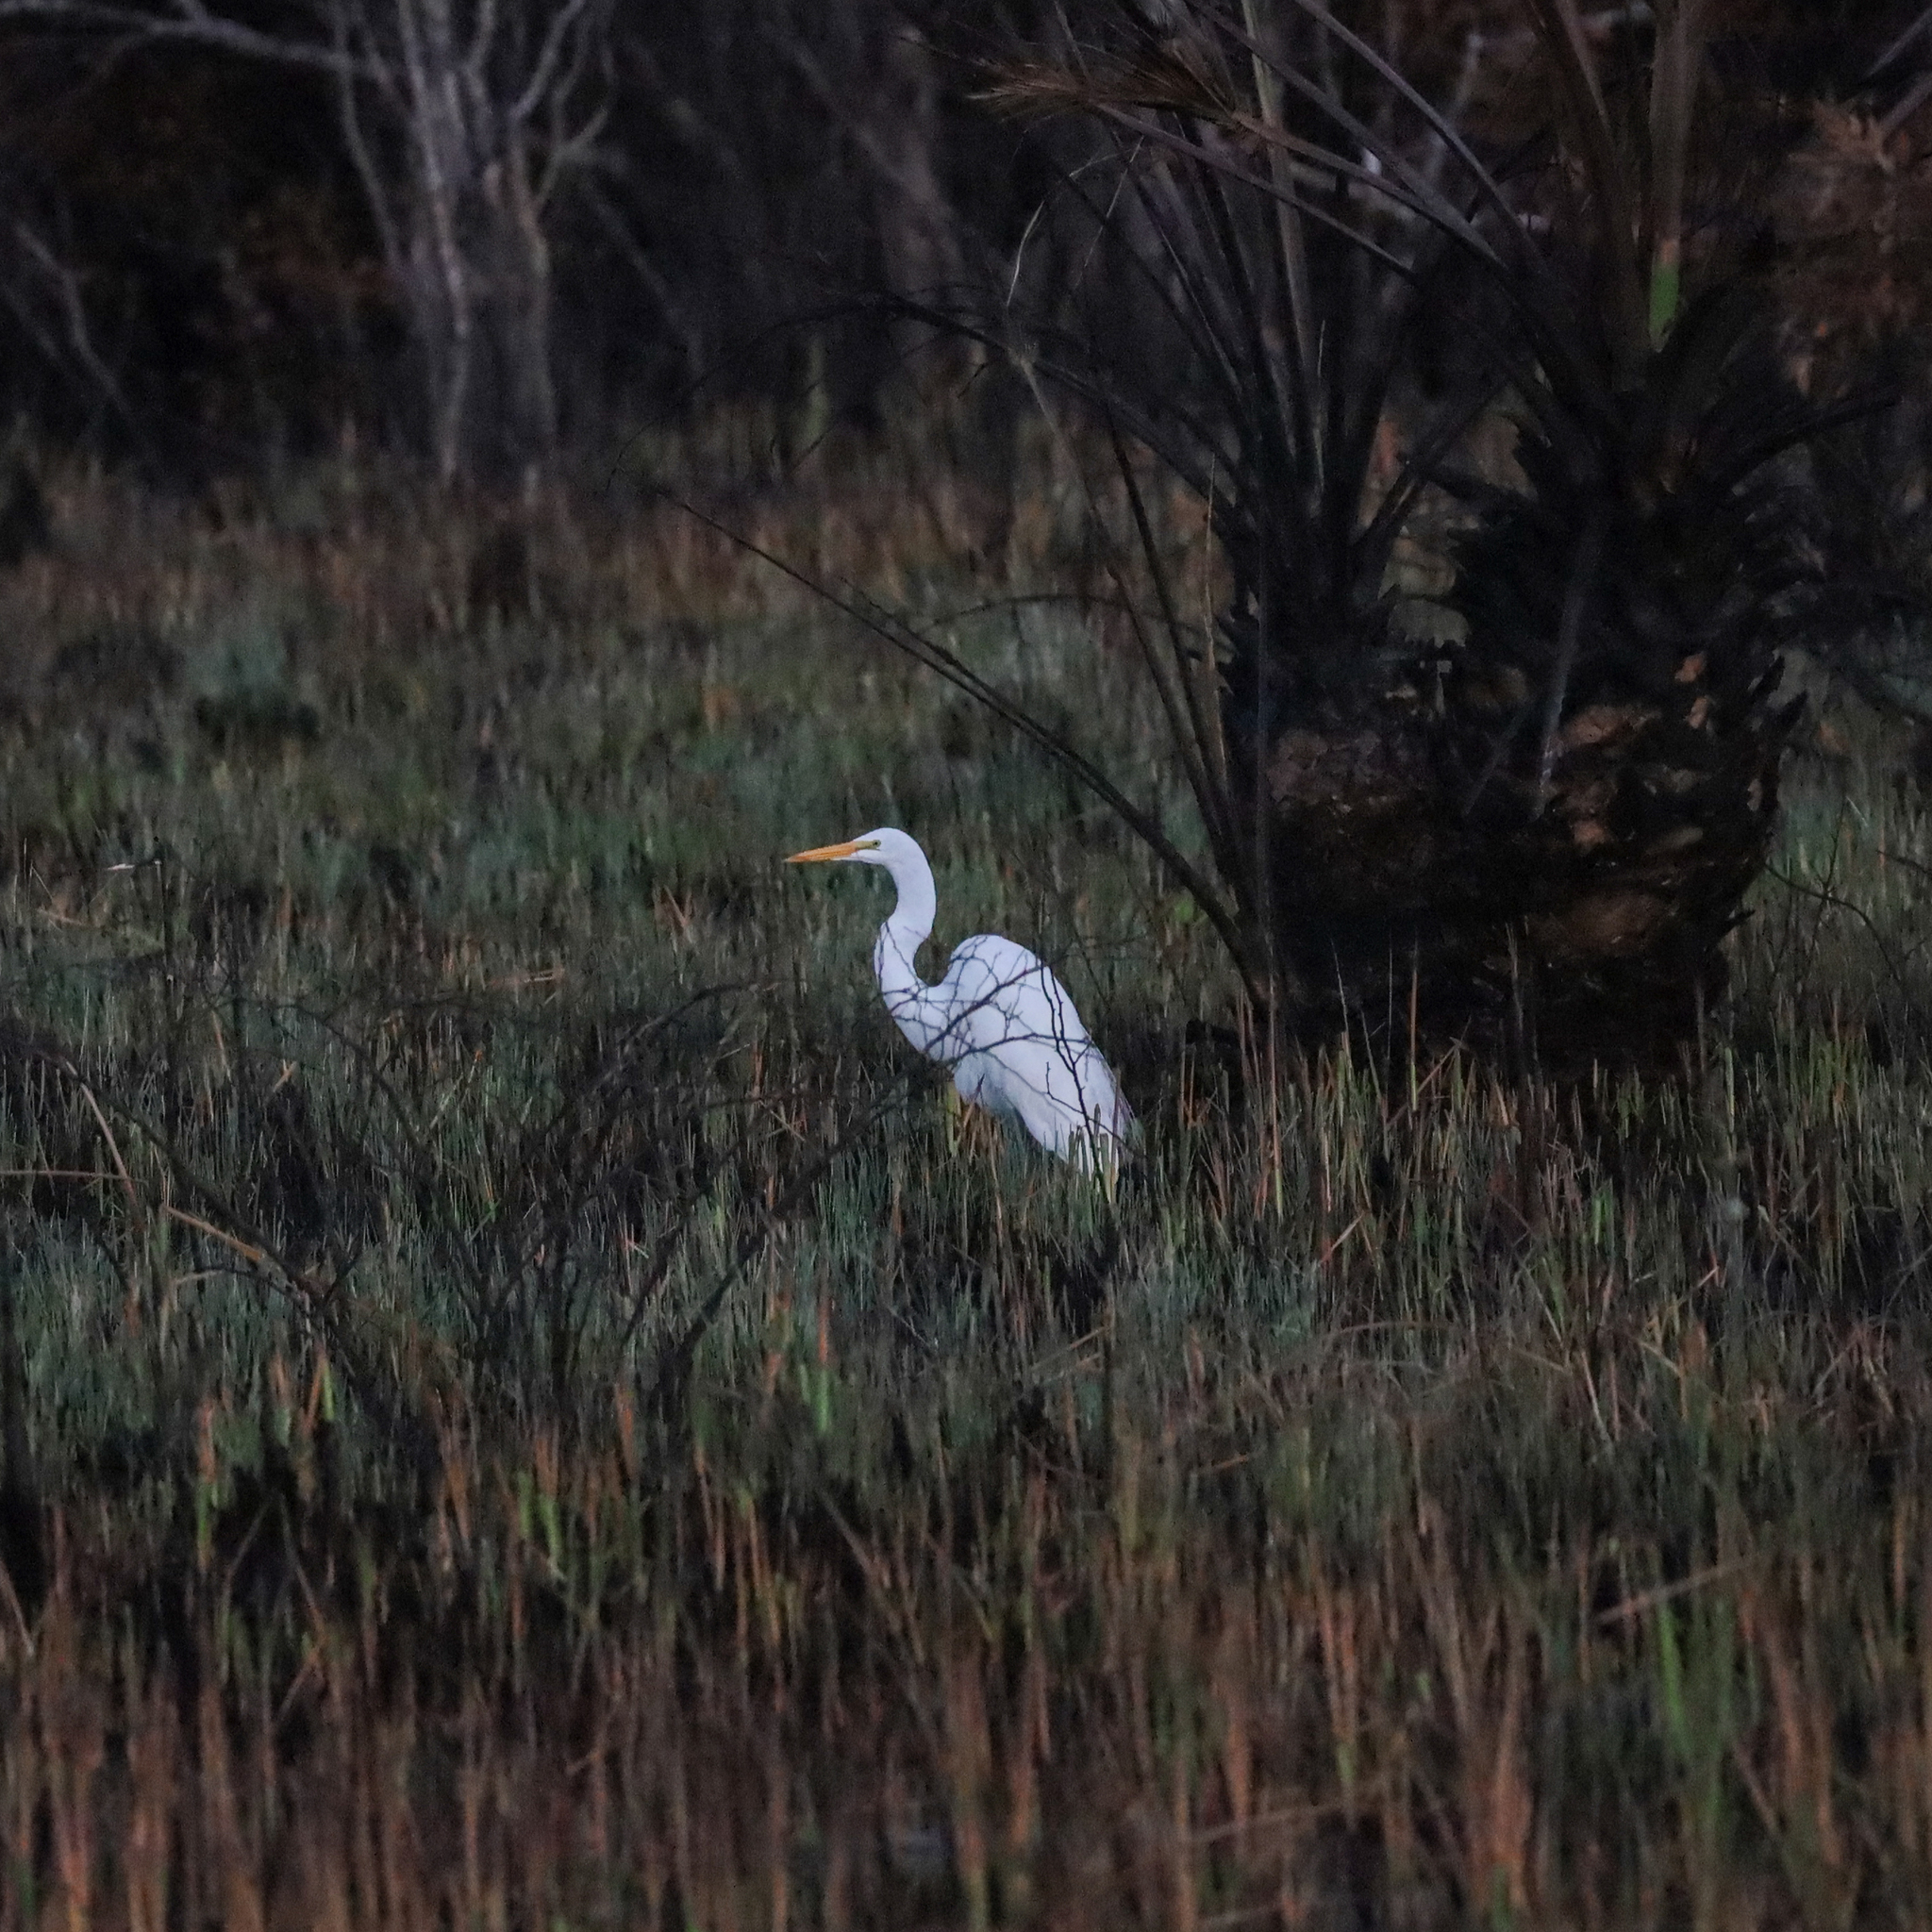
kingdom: Animalia
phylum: Chordata
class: Aves
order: Pelecaniformes
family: Ardeidae
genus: Ardea
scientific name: Ardea alba
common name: Great egret
